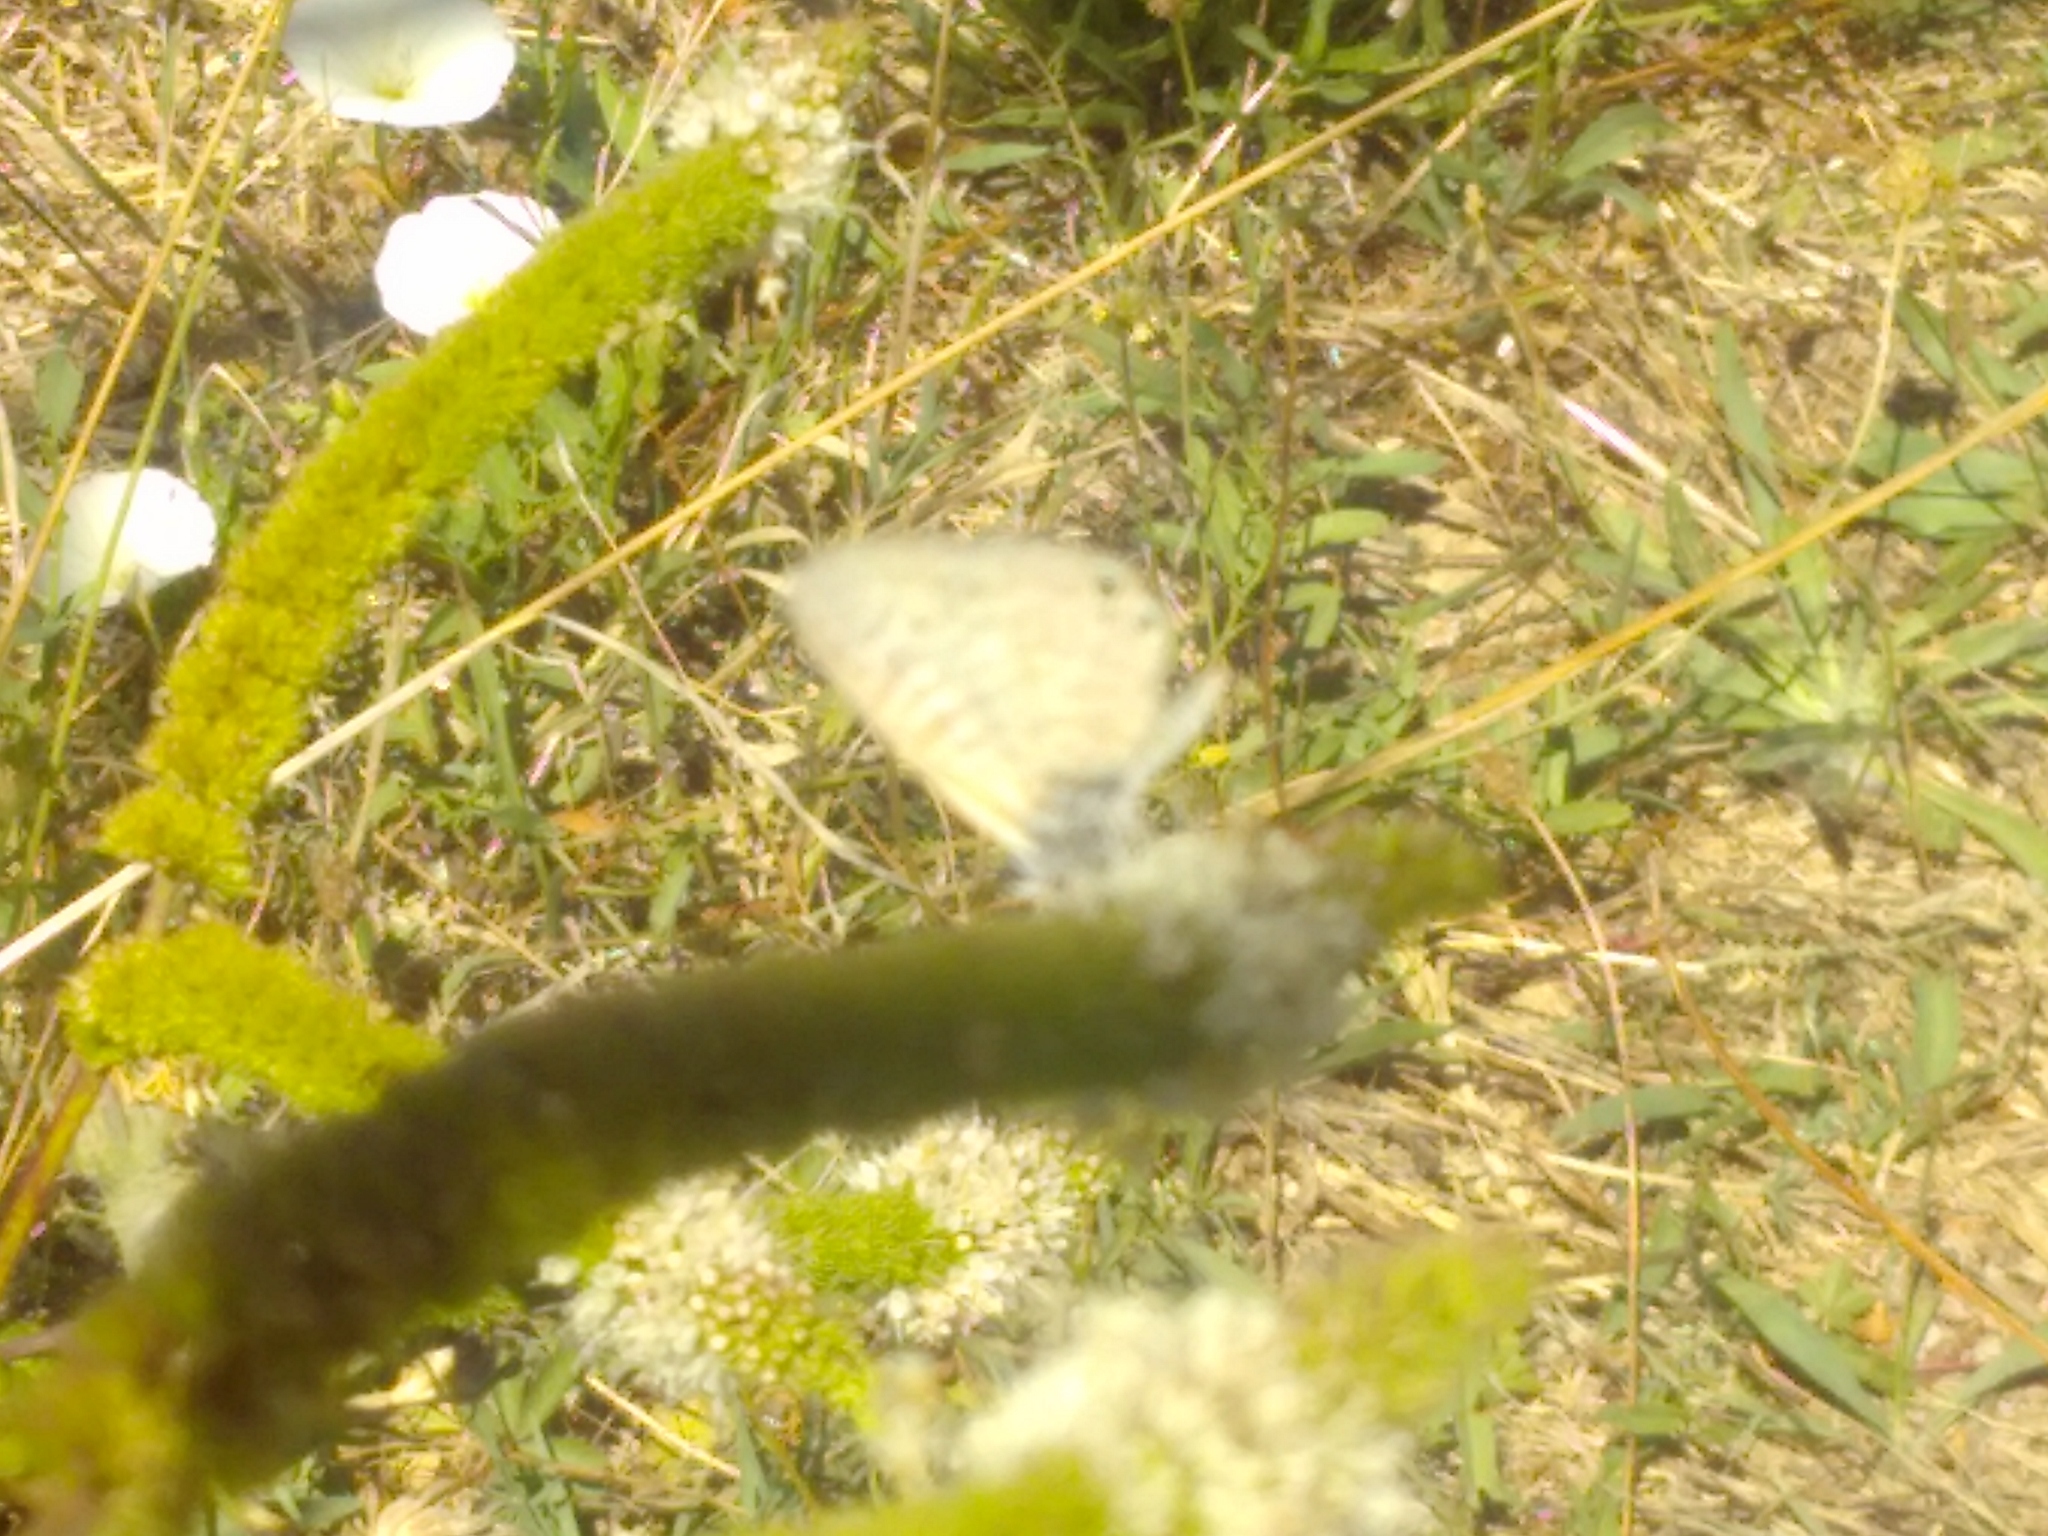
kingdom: Animalia
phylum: Arthropoda
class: Insecta
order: Lepidoptera
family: Lycaenidae
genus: Leptotes
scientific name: Leptotes pirithous
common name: Lang's short-tailed blue
